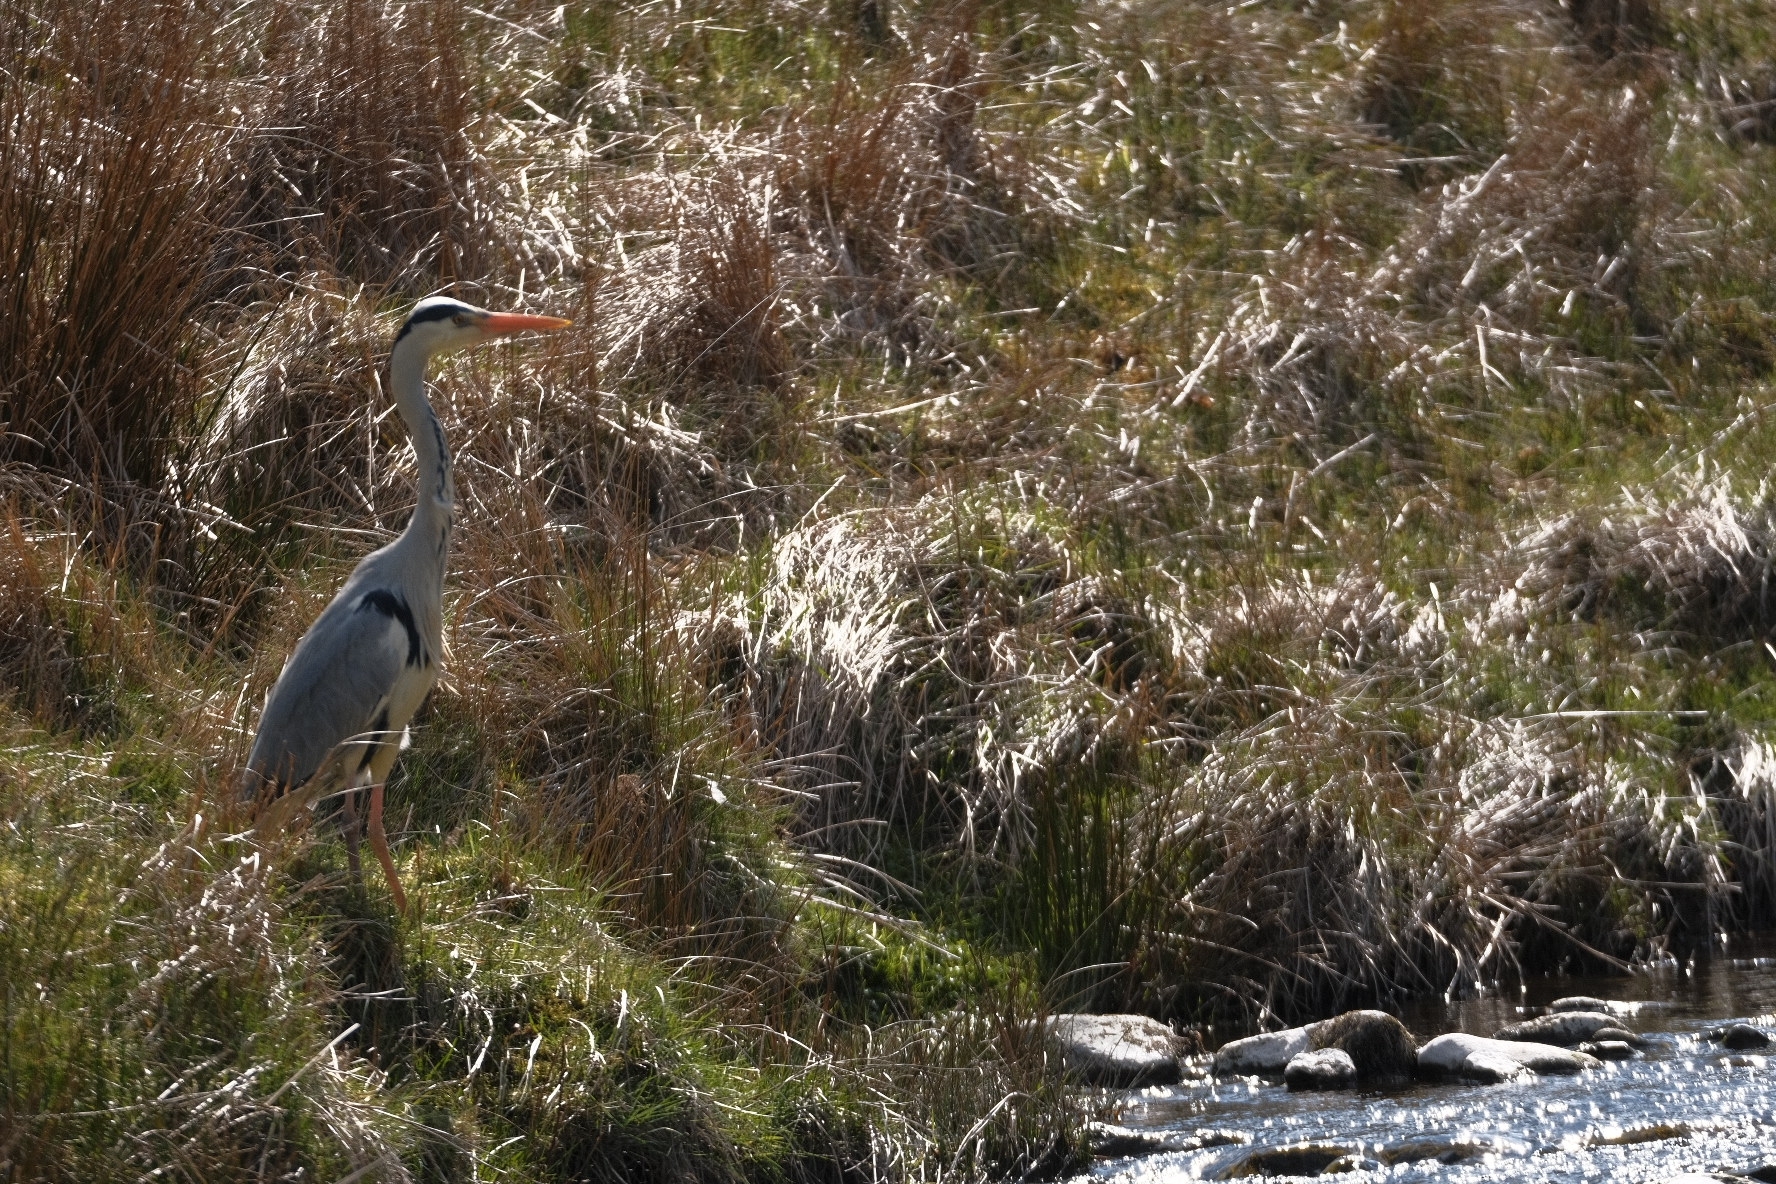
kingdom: Animalia
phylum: Chordata
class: Aves
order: Pelecaniformes
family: Ardeidae
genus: Ardea
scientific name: Ardea cinerea
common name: Grey heron
